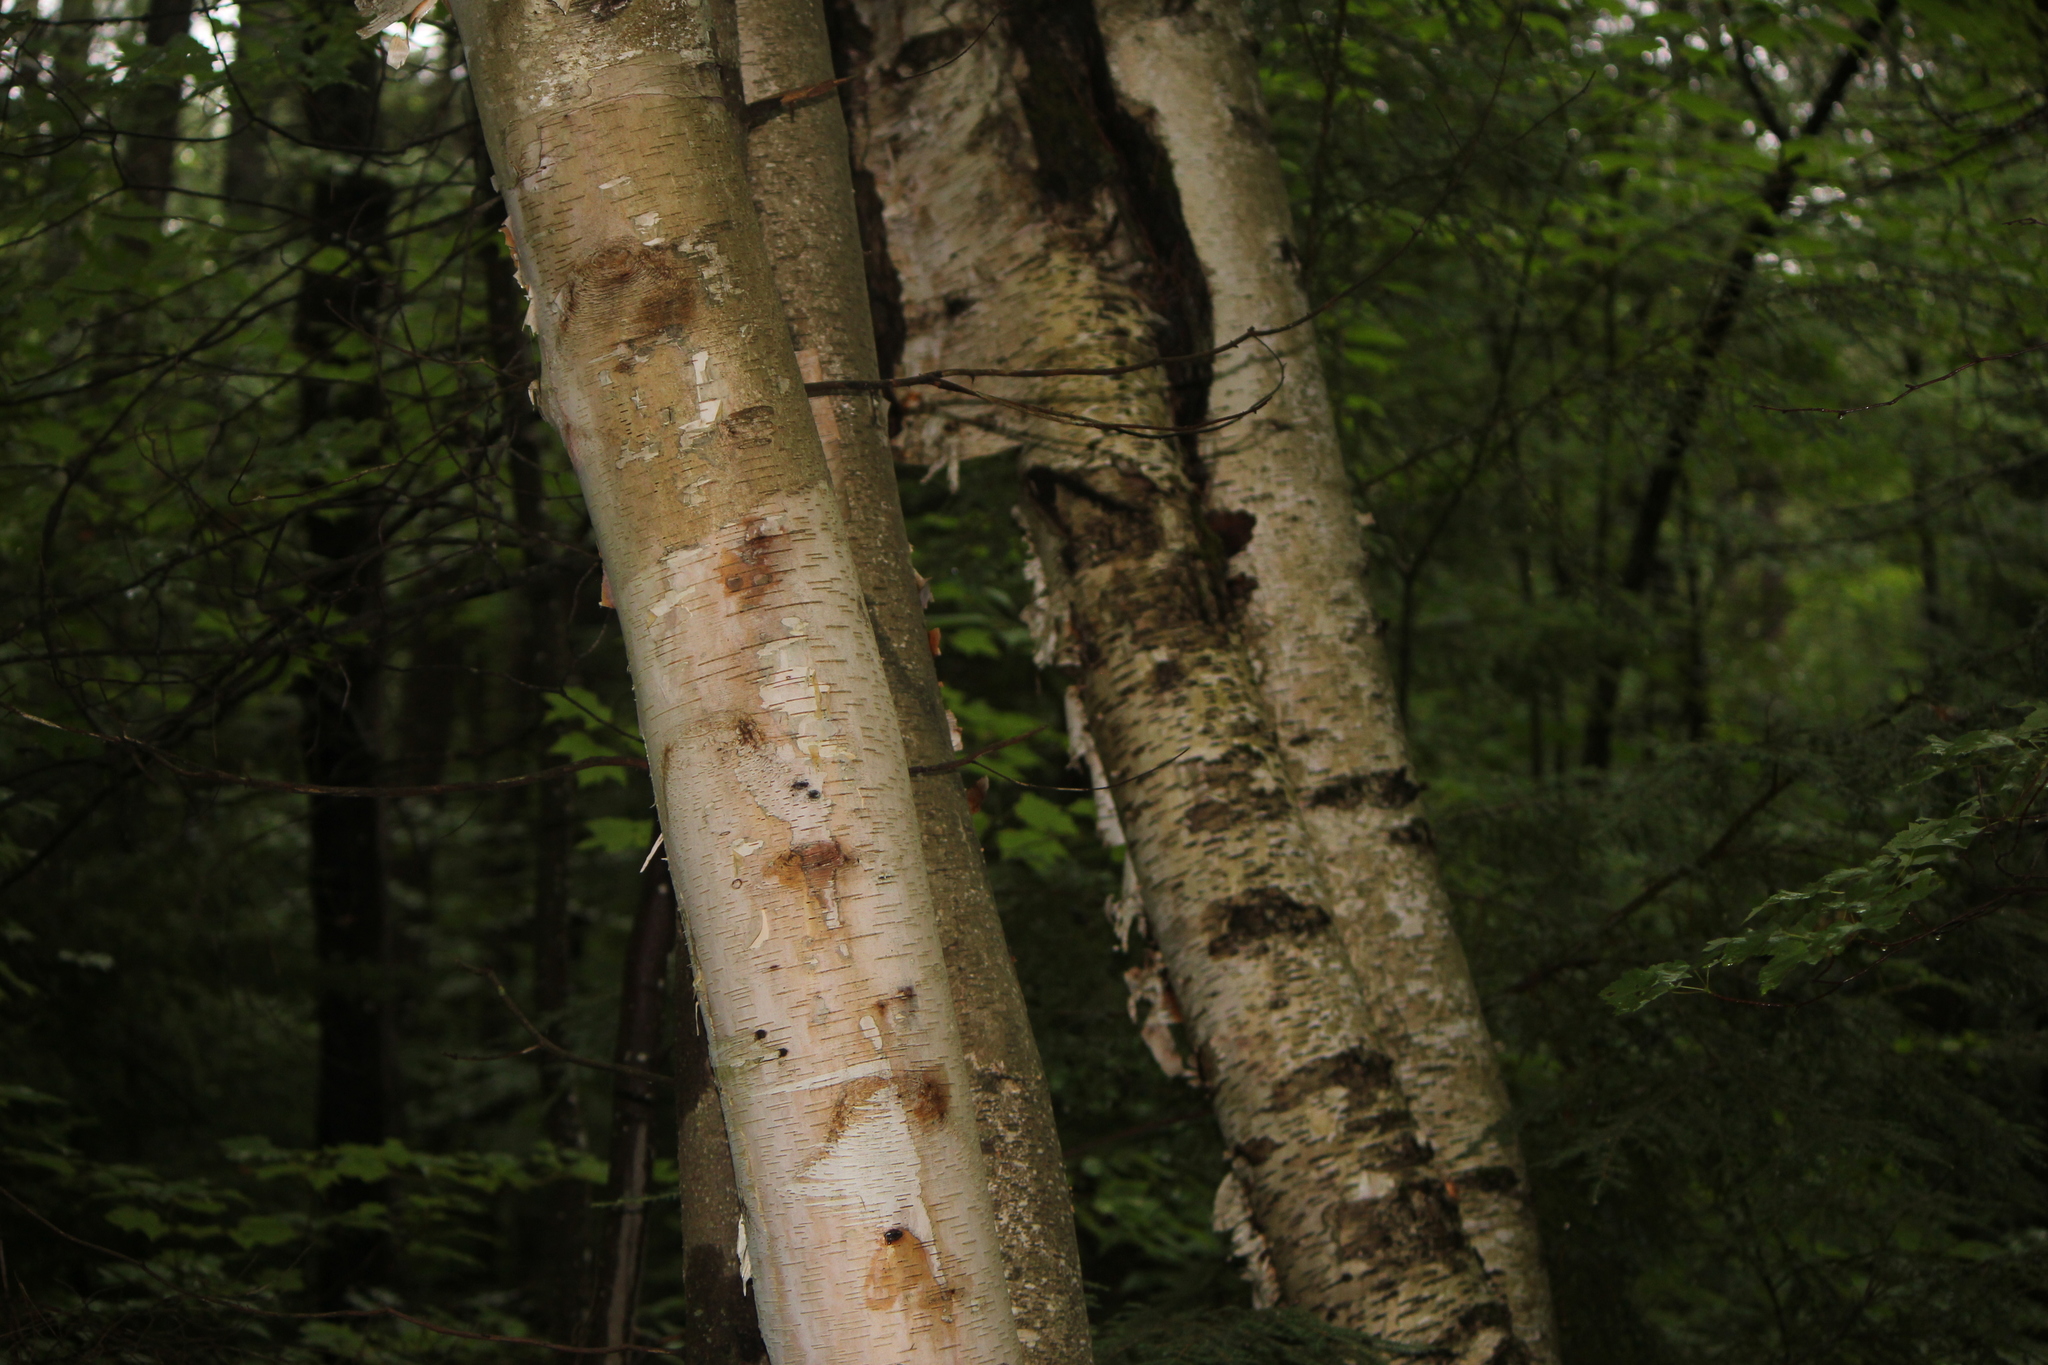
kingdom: Plantae
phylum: Tracheophyta
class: Magnoliopsida
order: Fagales
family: Betulaceae
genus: Betula
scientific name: Betula papyrifera
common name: Paper birch
